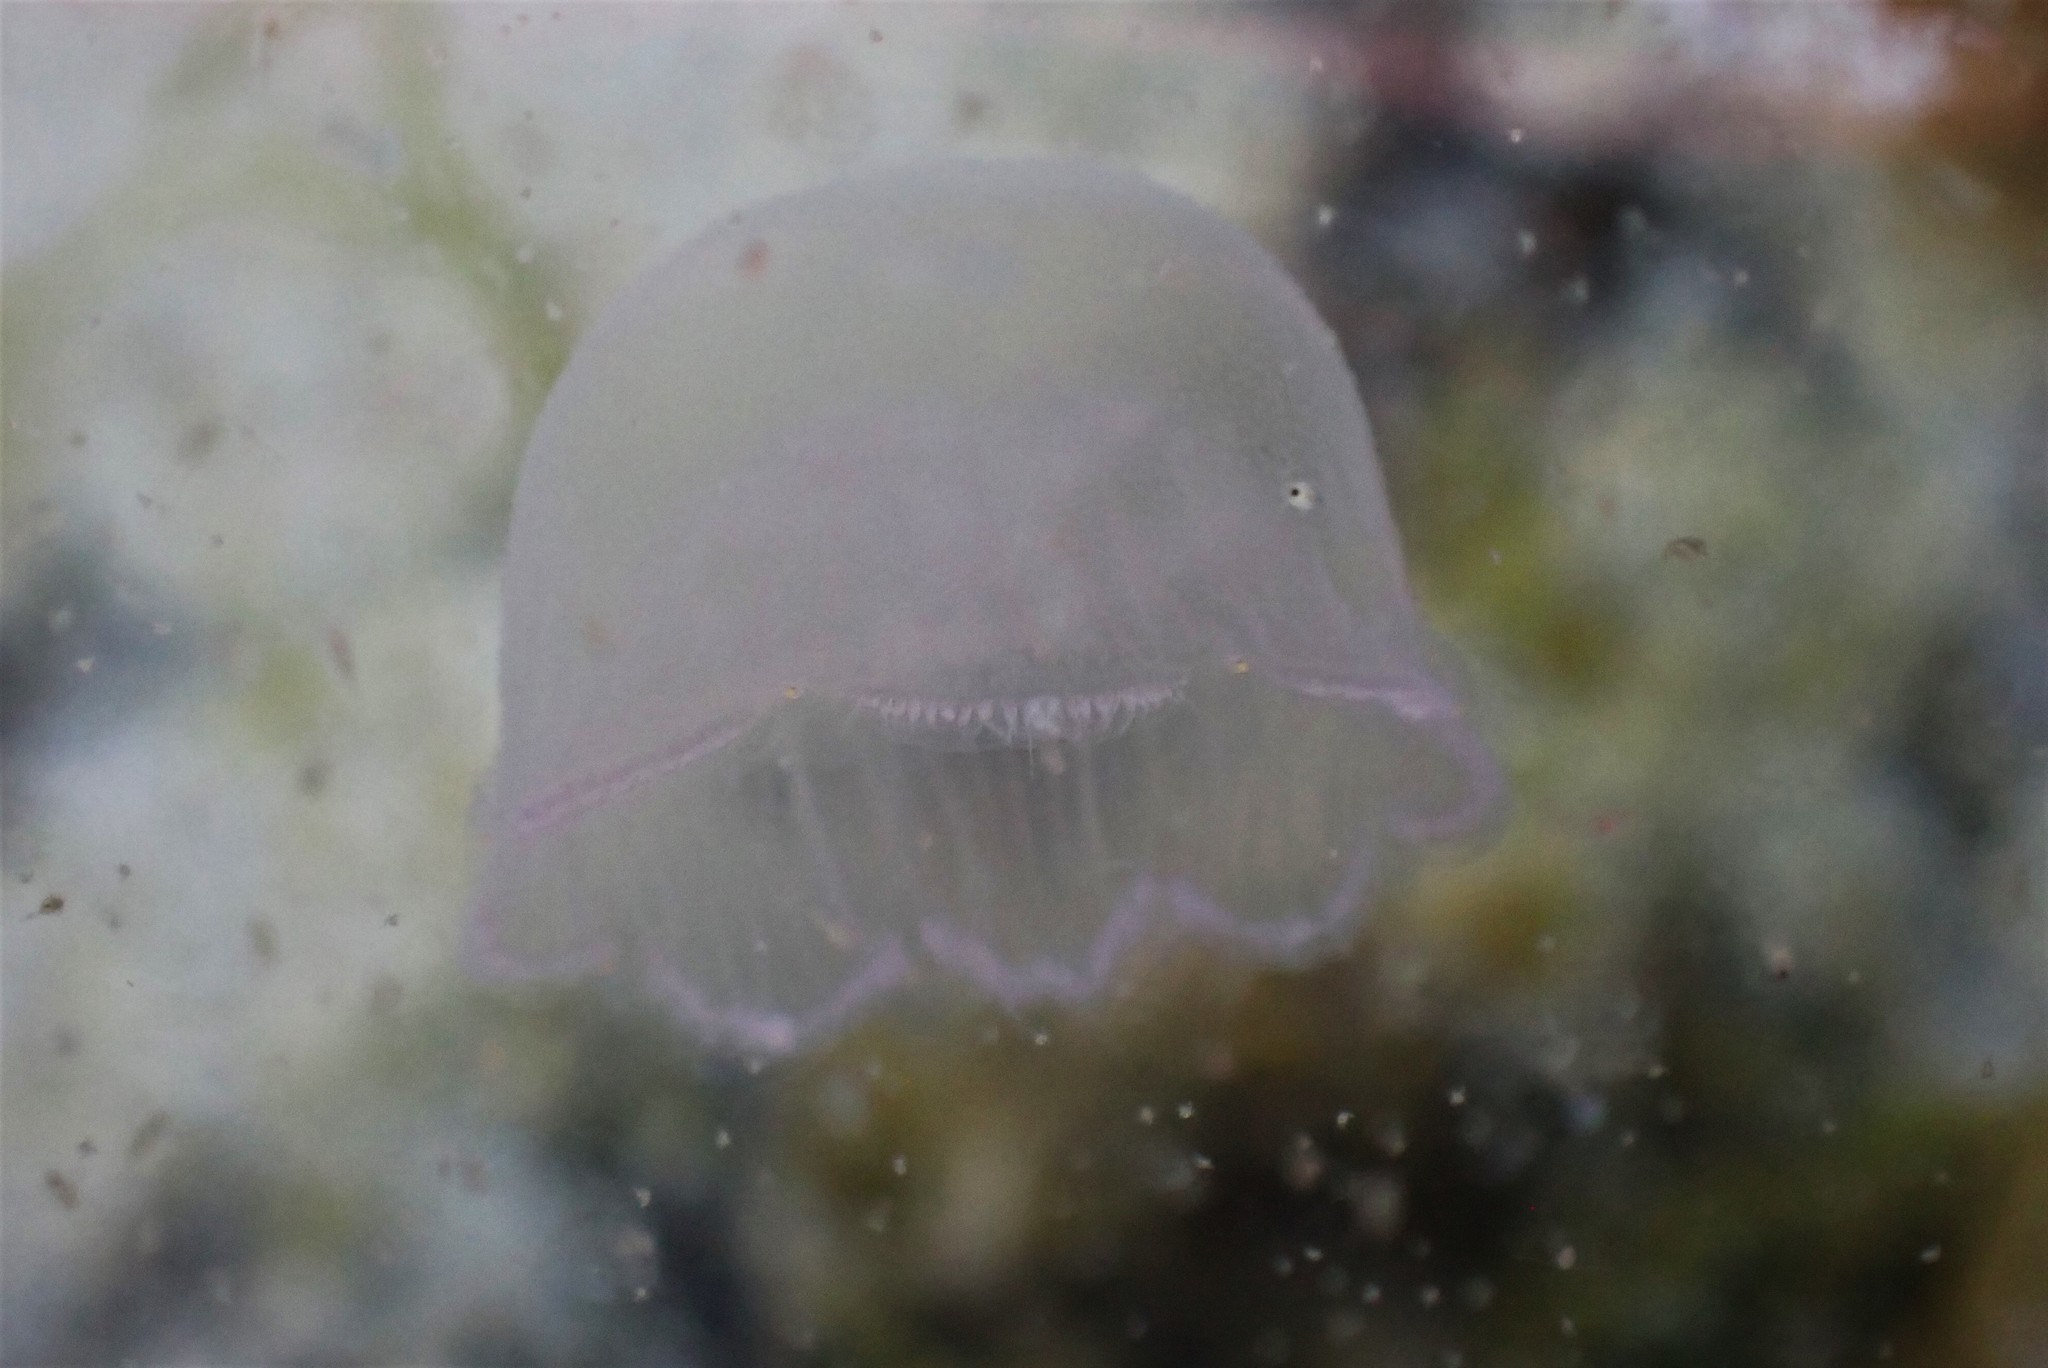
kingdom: Animalia
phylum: Cnidaria
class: Scyphozoa
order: Semaeostomeae
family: Ulmaridae
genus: Aurelia
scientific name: Aurelia aurita
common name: Moon jellyfish
